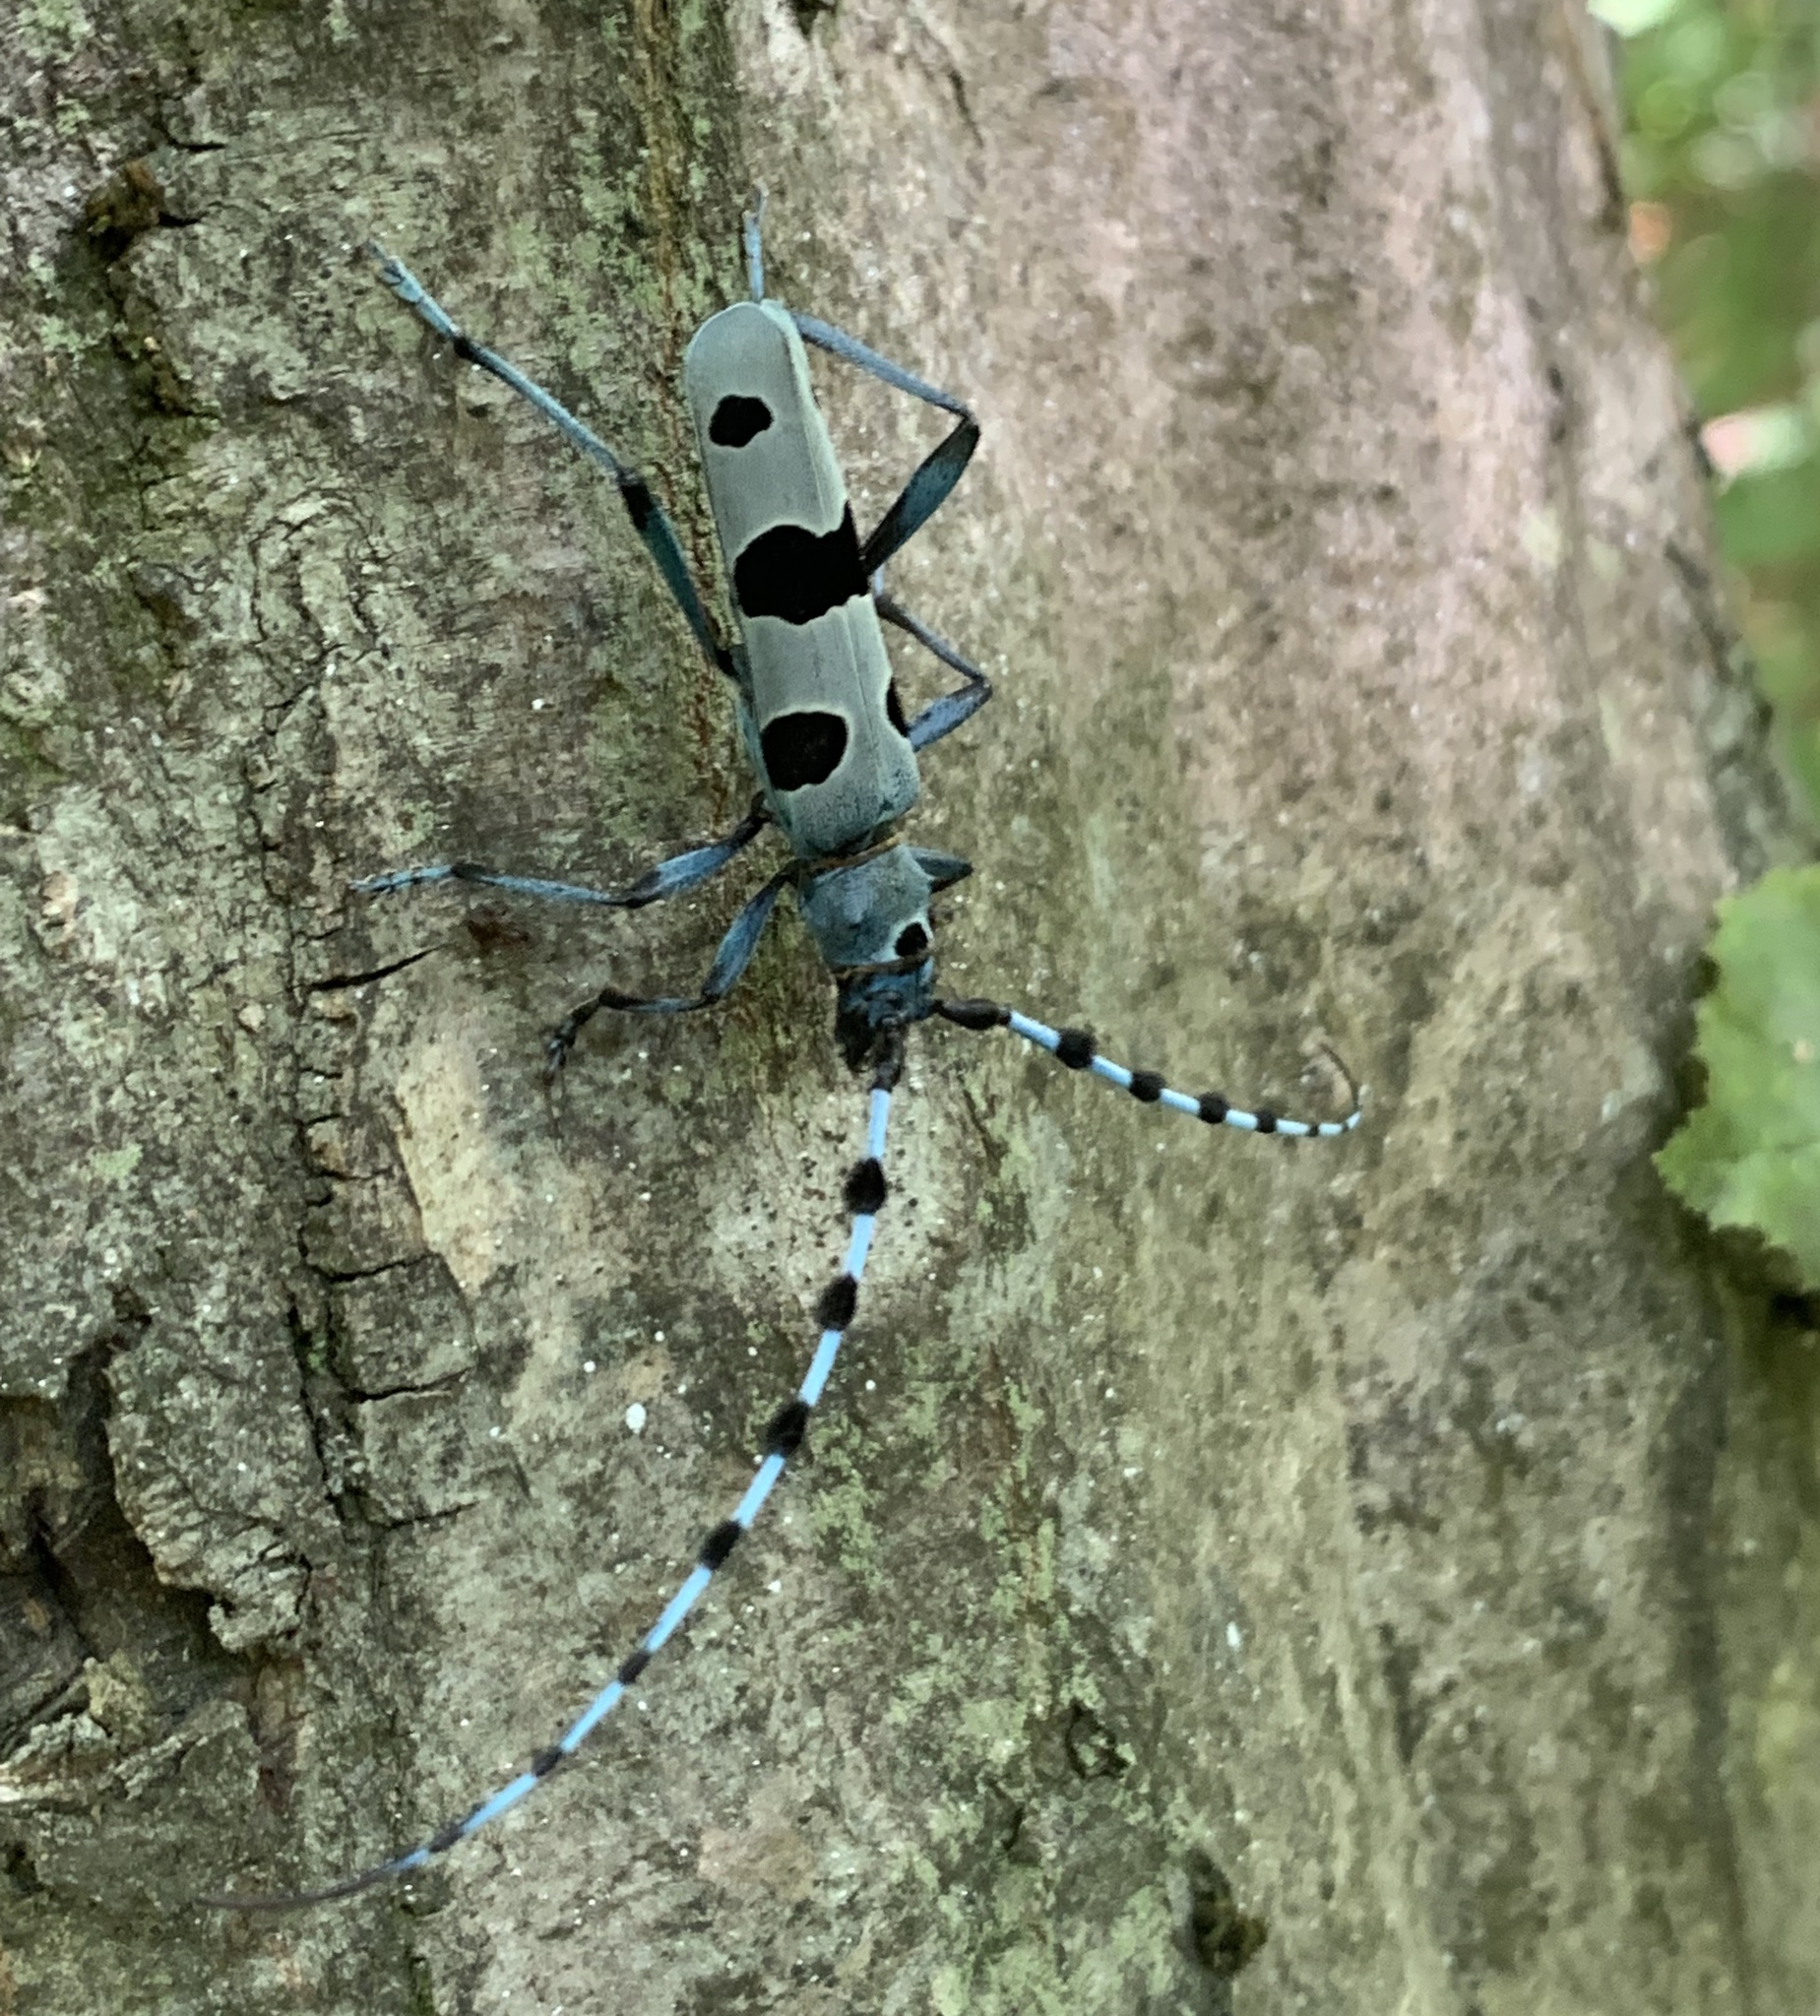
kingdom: Animalia
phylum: Arthropoda
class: Insecta
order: Coleoptera
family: Cerambycidae
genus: Rosalia
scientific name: Rosalia alpina
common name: Rosalia longicorn
